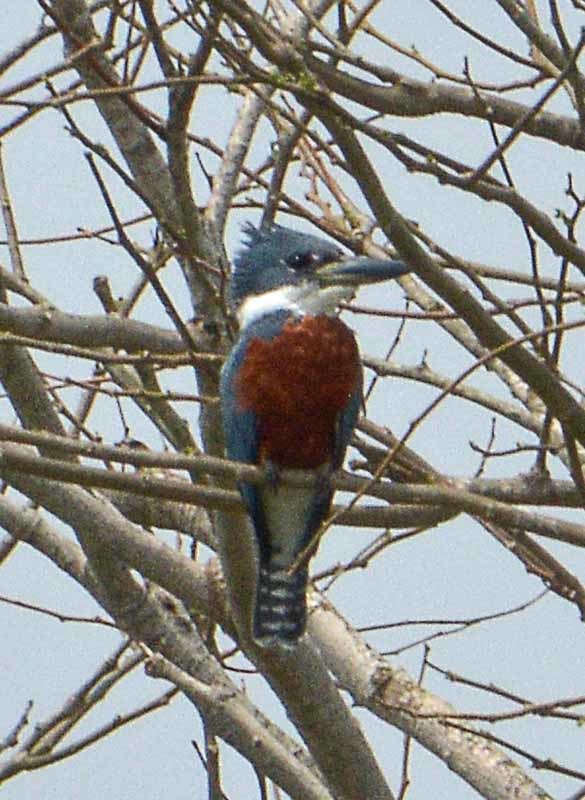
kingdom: Animalia
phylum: Chordata
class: Aves
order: Coraciiformes
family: Alcedinidae
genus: Megaceryle
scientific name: Megaceryle torquata
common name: Ringed kingfisher
